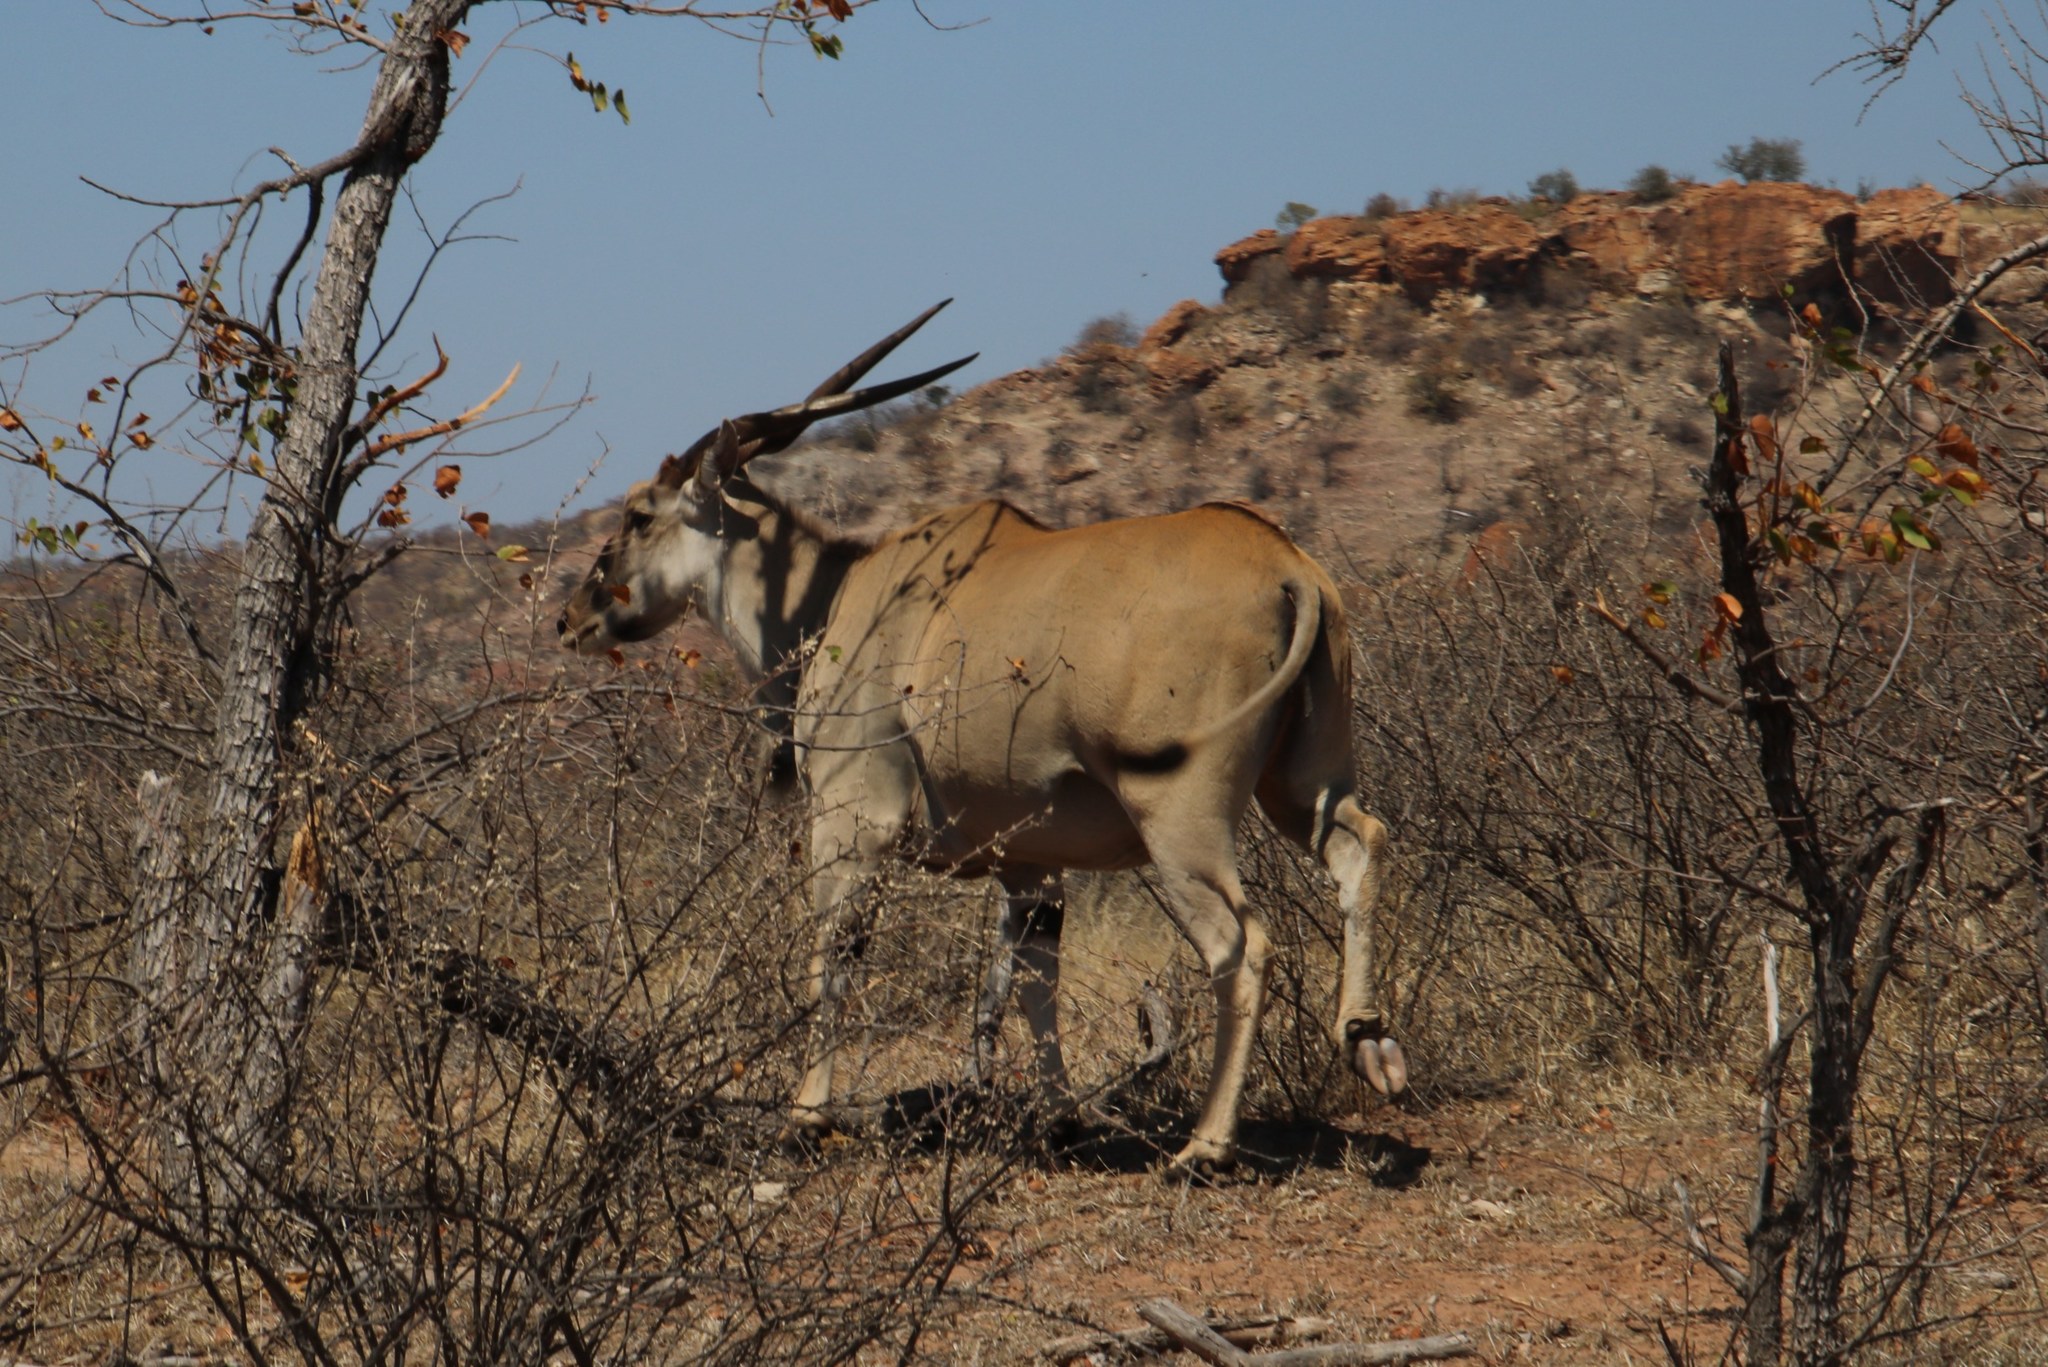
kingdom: Animalia
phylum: Chordata
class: Mammalia
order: Artiodactyla
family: Bovidae
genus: Taurotragus
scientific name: Taurotragus oryx
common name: Common eland
